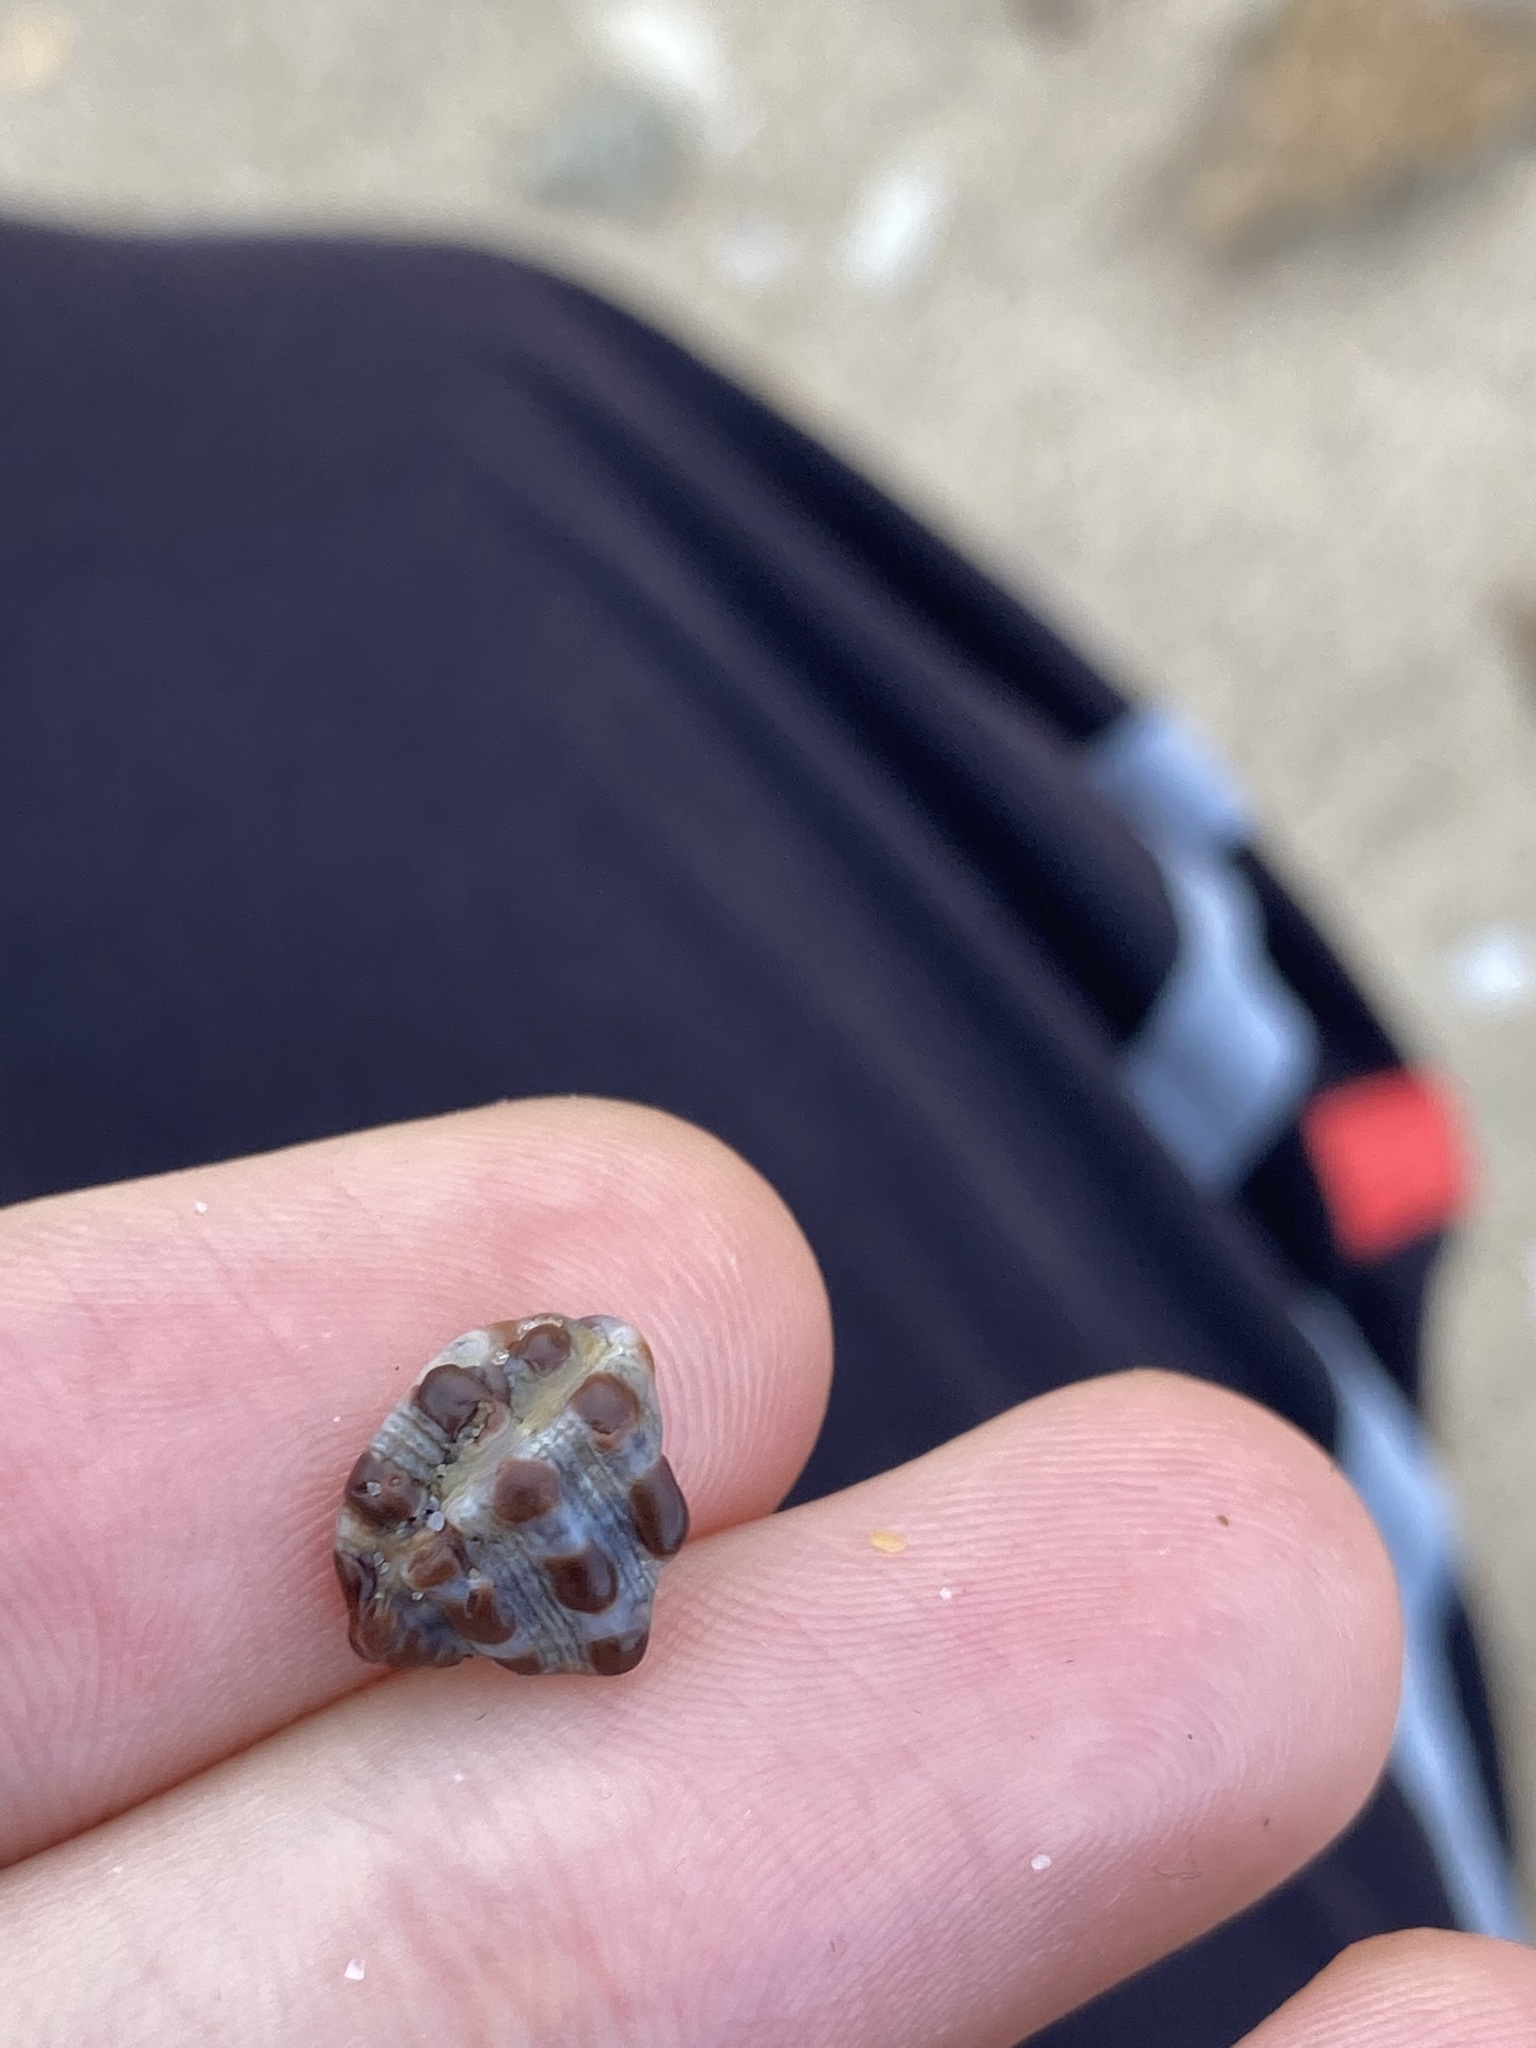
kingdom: Animalia
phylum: Mollusca
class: Gastropoda
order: Neogastropoda
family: Muricidae
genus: Tenguella
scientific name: Tenguella marginalba
